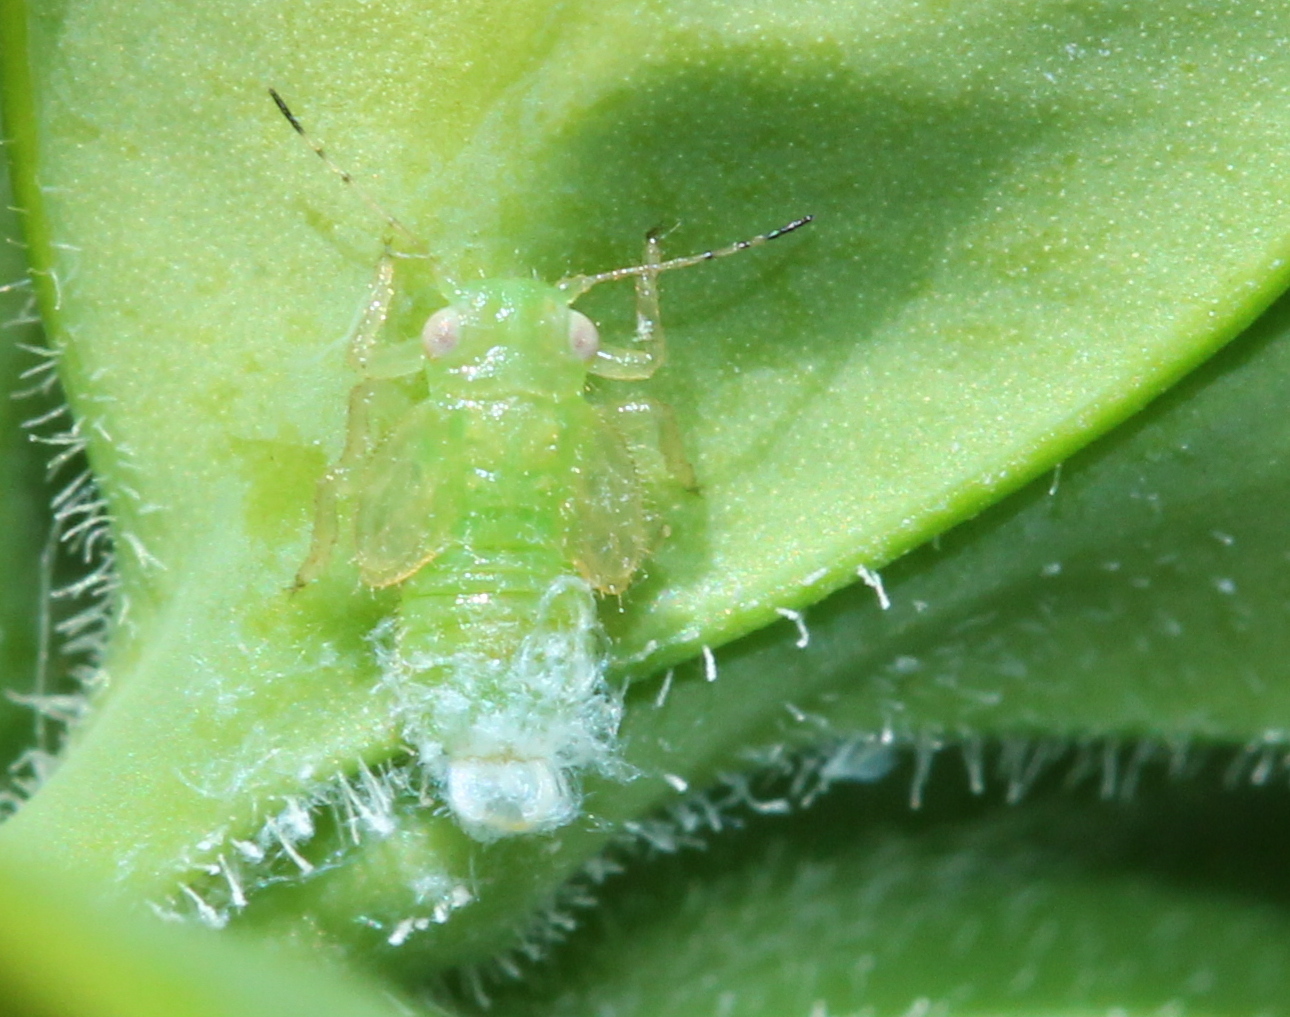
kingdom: Animalia
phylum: Arthropoda
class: Insecta
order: Hemiptera
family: Psyllidae
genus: Psylla
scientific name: Psylla buxi
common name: Boxwood psyllid
